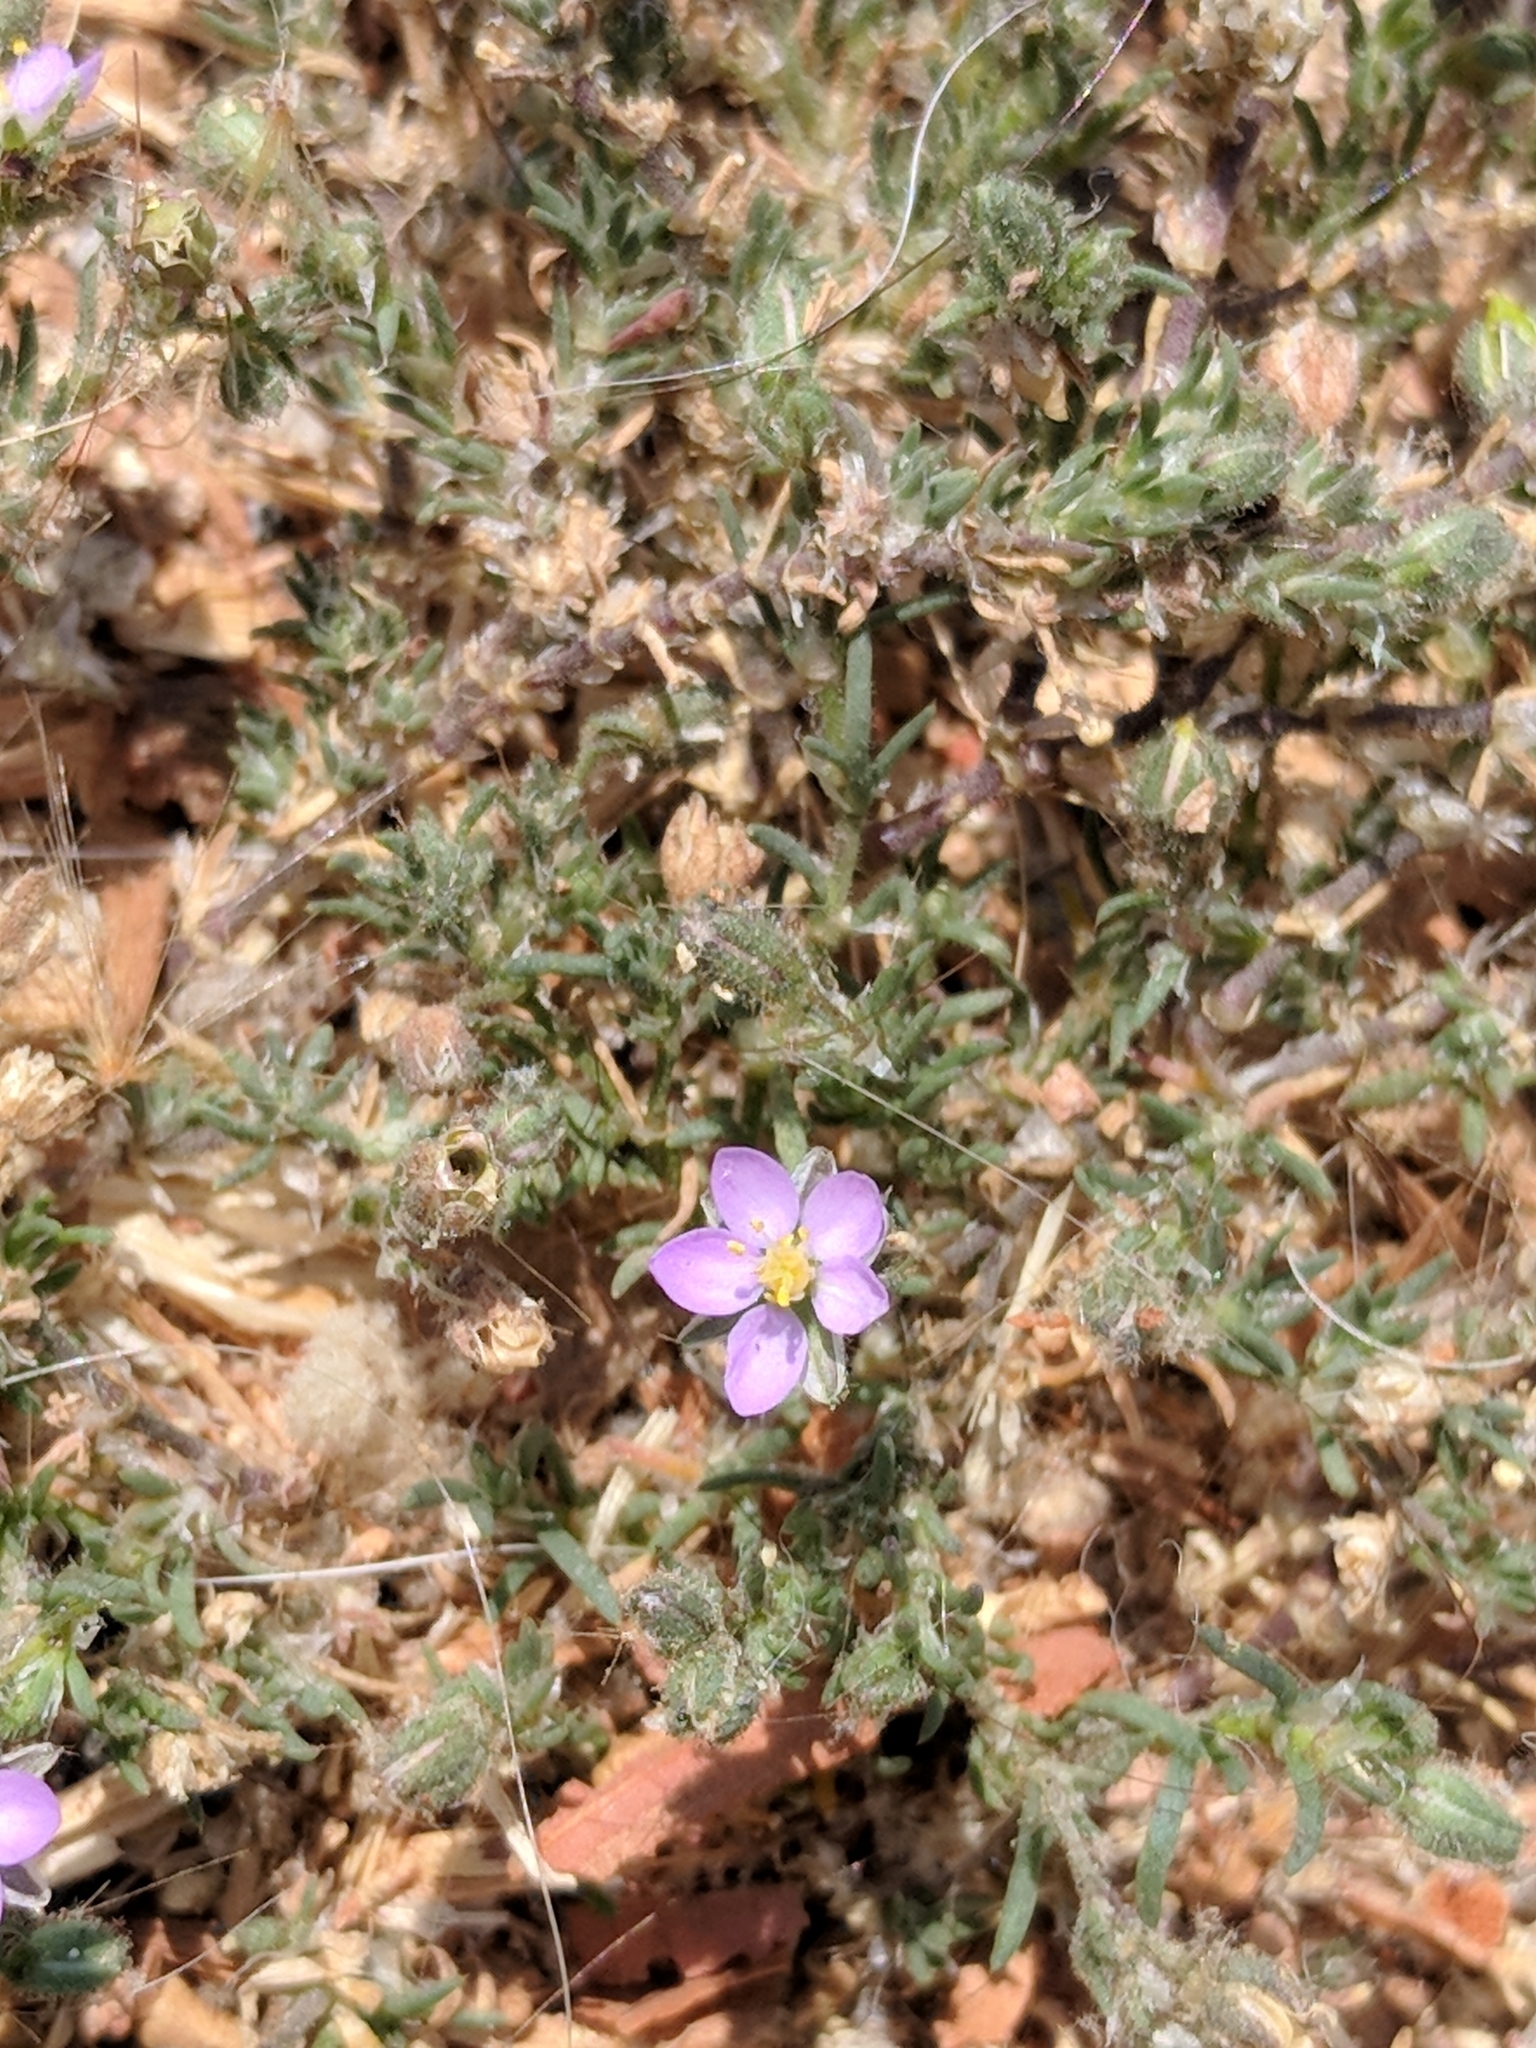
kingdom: Plantae
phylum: Tracheophyta
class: Magnoliopsida
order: Caryophyllales
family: Caryophyllaceae
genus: Spergularia
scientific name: Spergularia rubra
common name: Red sand-spurrey
